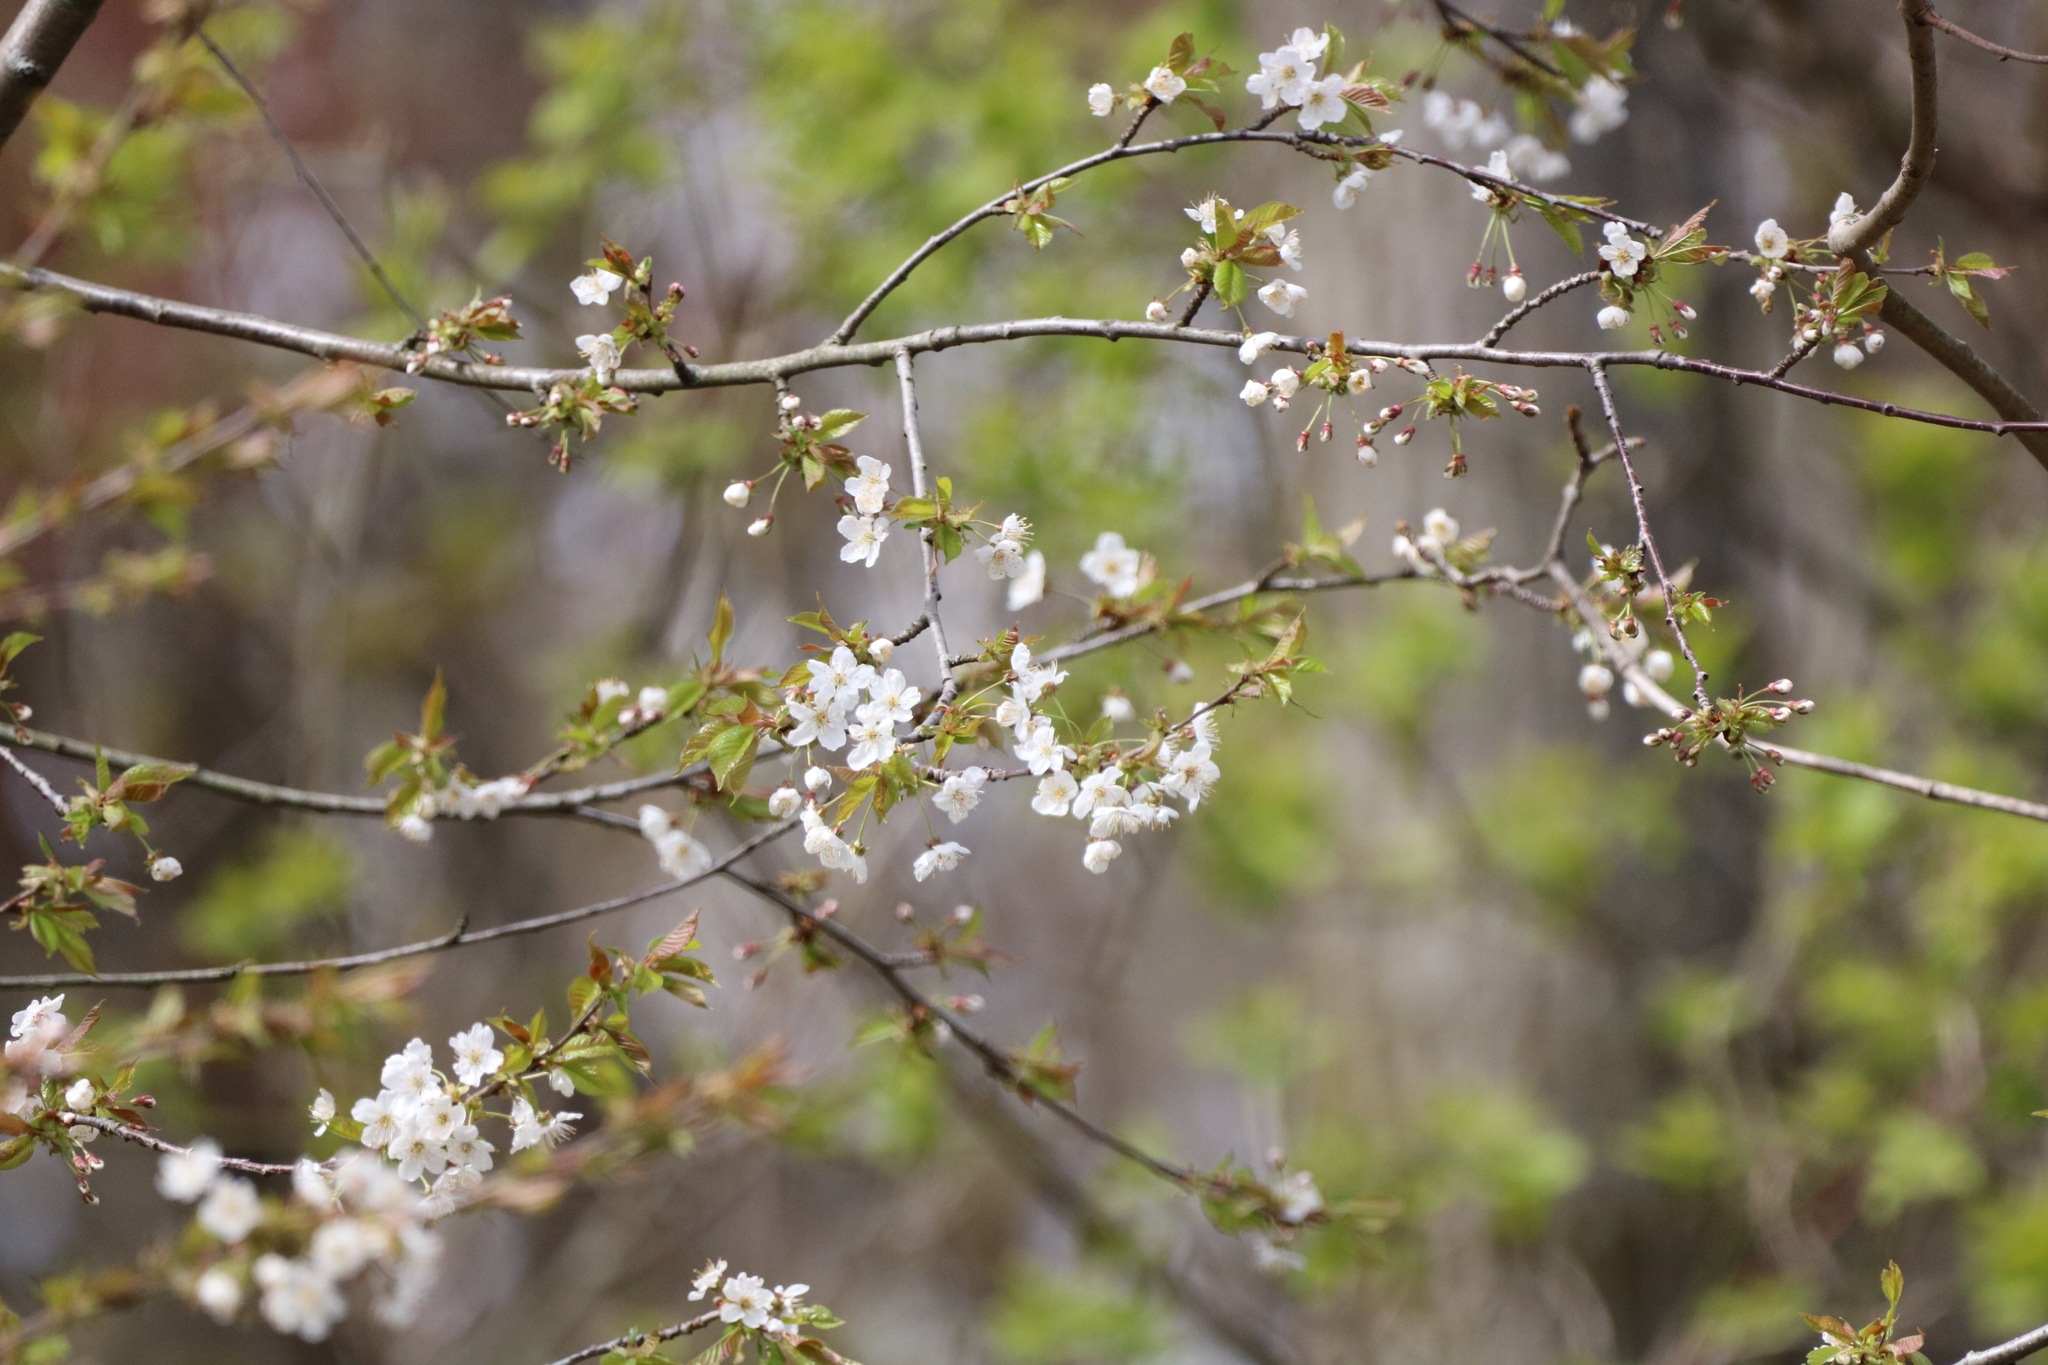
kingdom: Plantae
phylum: Tracheophyta
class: Magnoliopsida
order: Rosales
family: Rosaceae
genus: Prunus
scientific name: Prunus avium
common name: Sweet cherry
